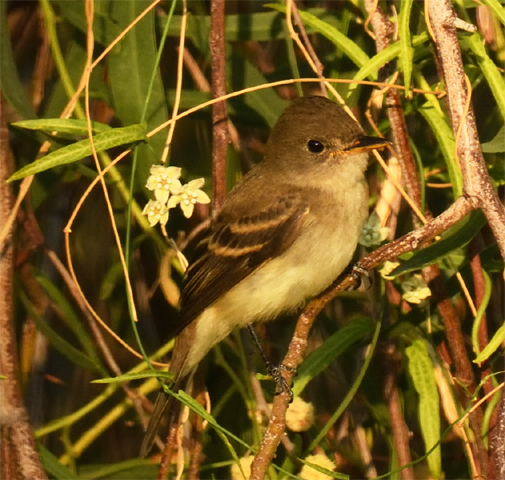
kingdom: Animalia
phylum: Chordata
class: Aves
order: Passeriformes
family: Tyrannidae
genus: Empidonax
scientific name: Empidonax traillii
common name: Willow flycatcher
